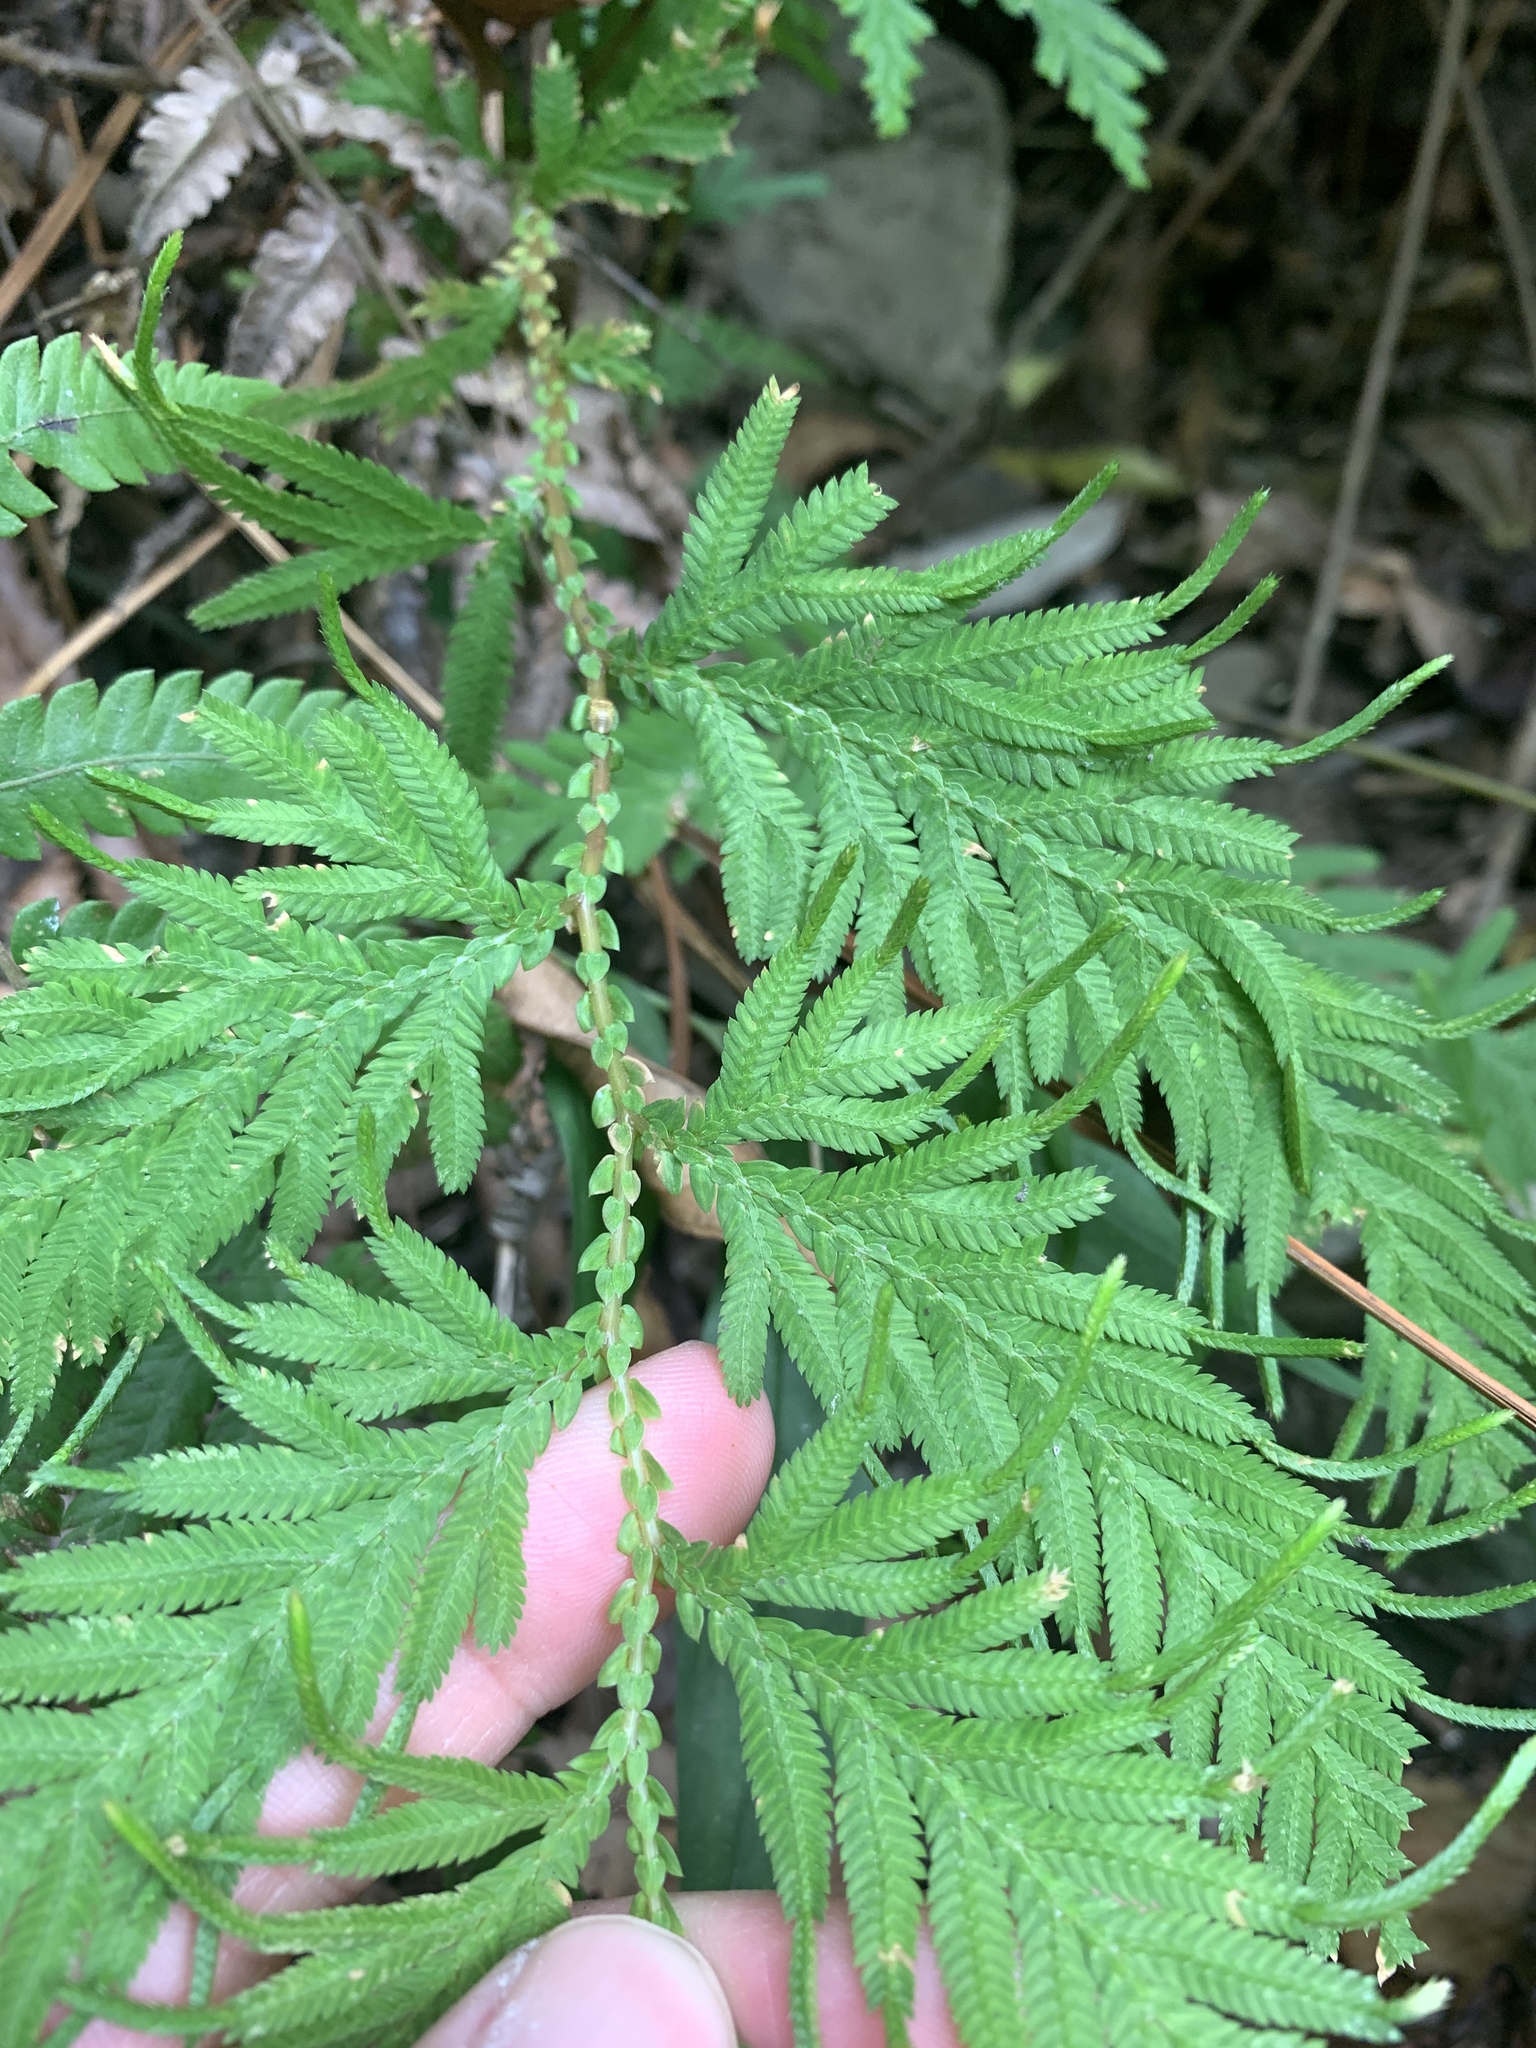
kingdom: Plantae
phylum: Tracheophyta
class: Lycopodiopsida
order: Selaginellales
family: Selaginellaceae
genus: Selaginella
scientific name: Selaginella delicatula
